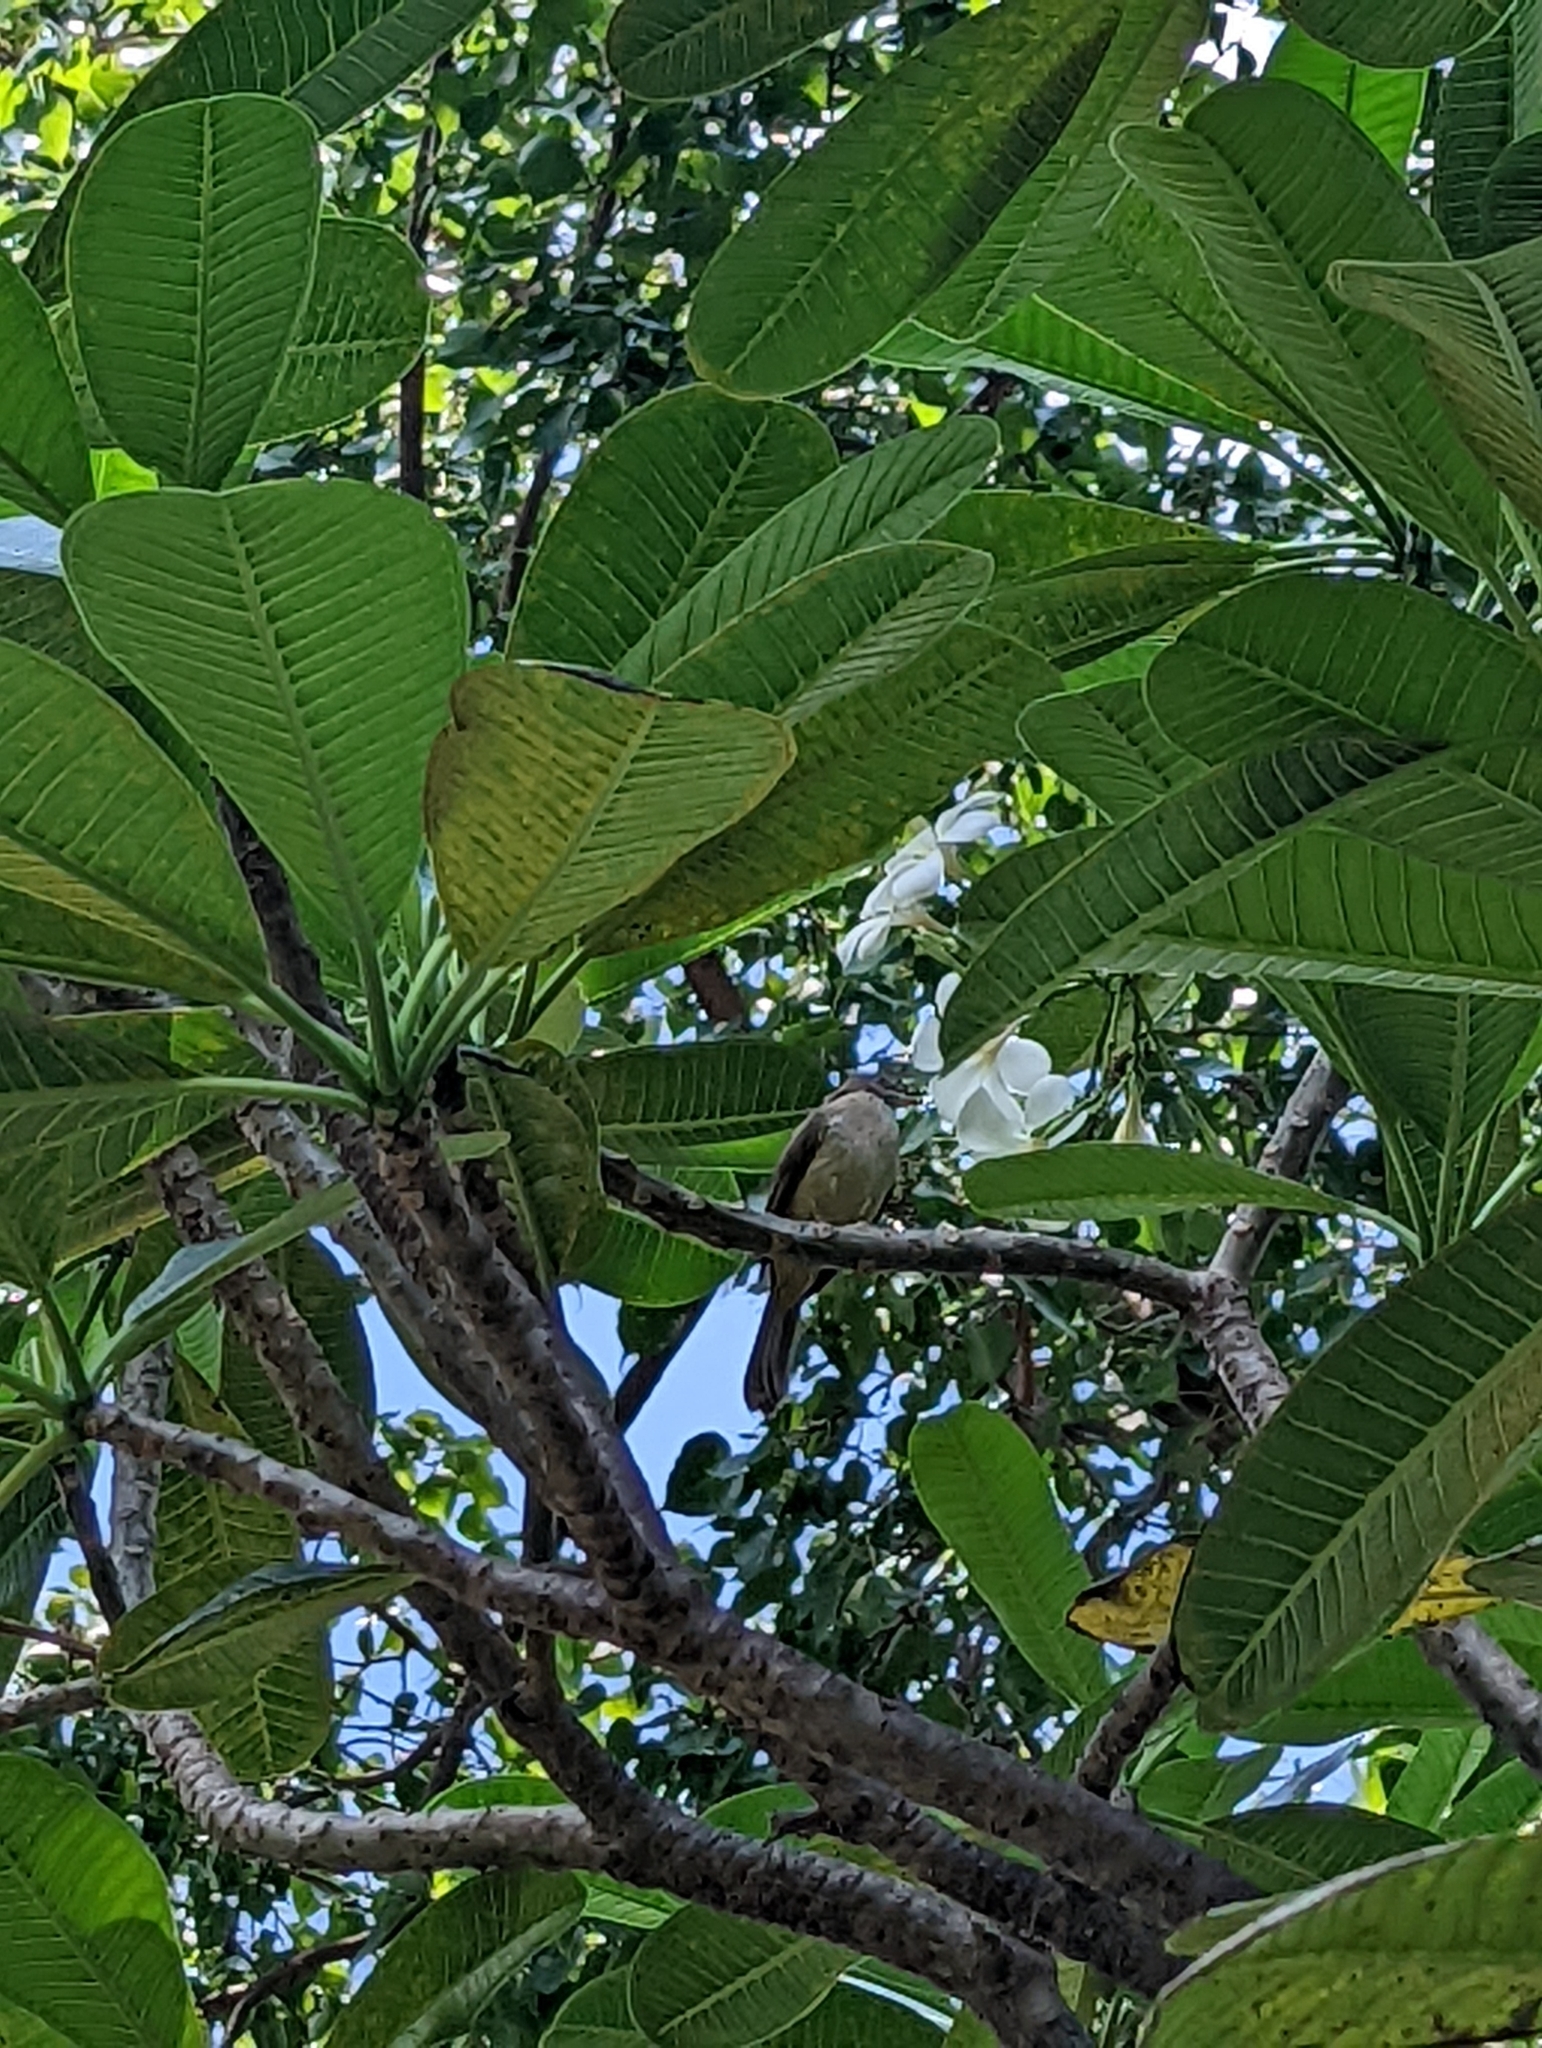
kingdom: Animalia
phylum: Chordata
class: Aves
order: Passeriformes
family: Pycnonotidae
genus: Pycnonotus
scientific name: Pycnonotus blanfordi
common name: Streak-eared bulbul
